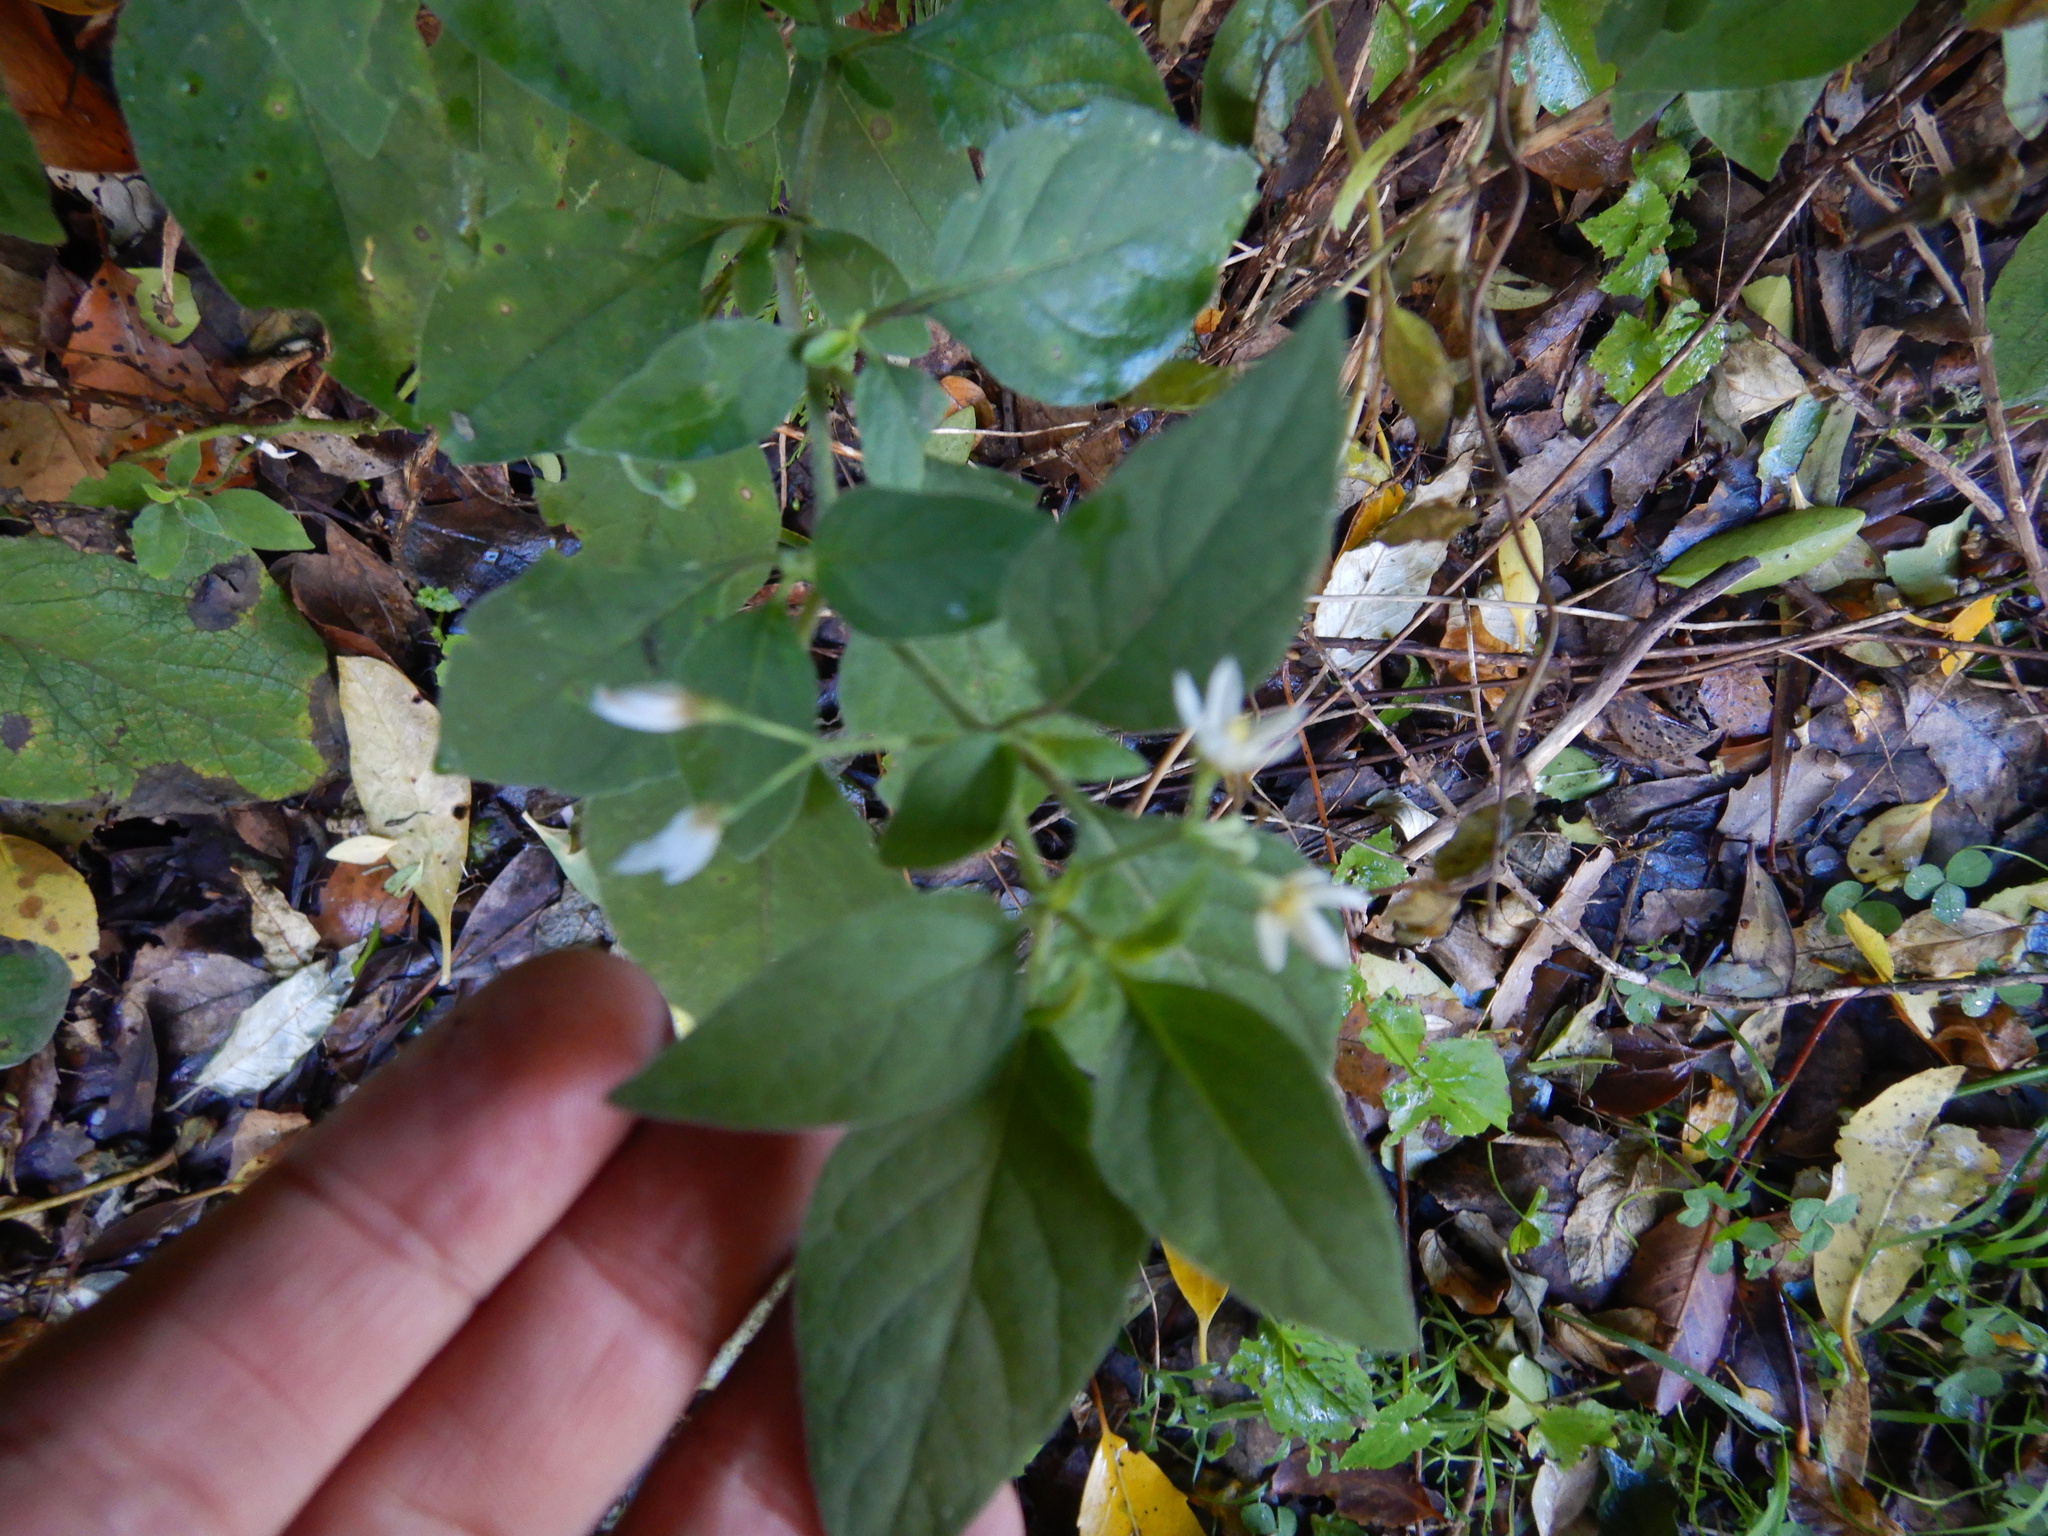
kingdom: Plantae
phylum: Tracheophyta
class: Magnoliopsida
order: Solanales
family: Solanaceae
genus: Solanum
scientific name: Solanum chenopodioides
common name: Tall nightshade
